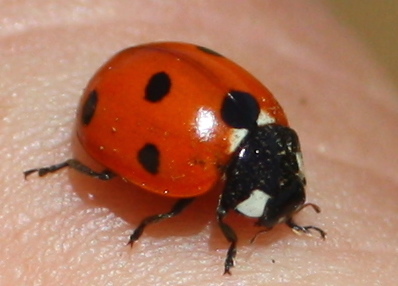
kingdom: Animalia
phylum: Arthropoda
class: Insecta
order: Coleoptera
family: Coccinellidae
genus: Coccinella
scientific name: Coccinella septempunctata
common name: Sevenspotted lady beetle
